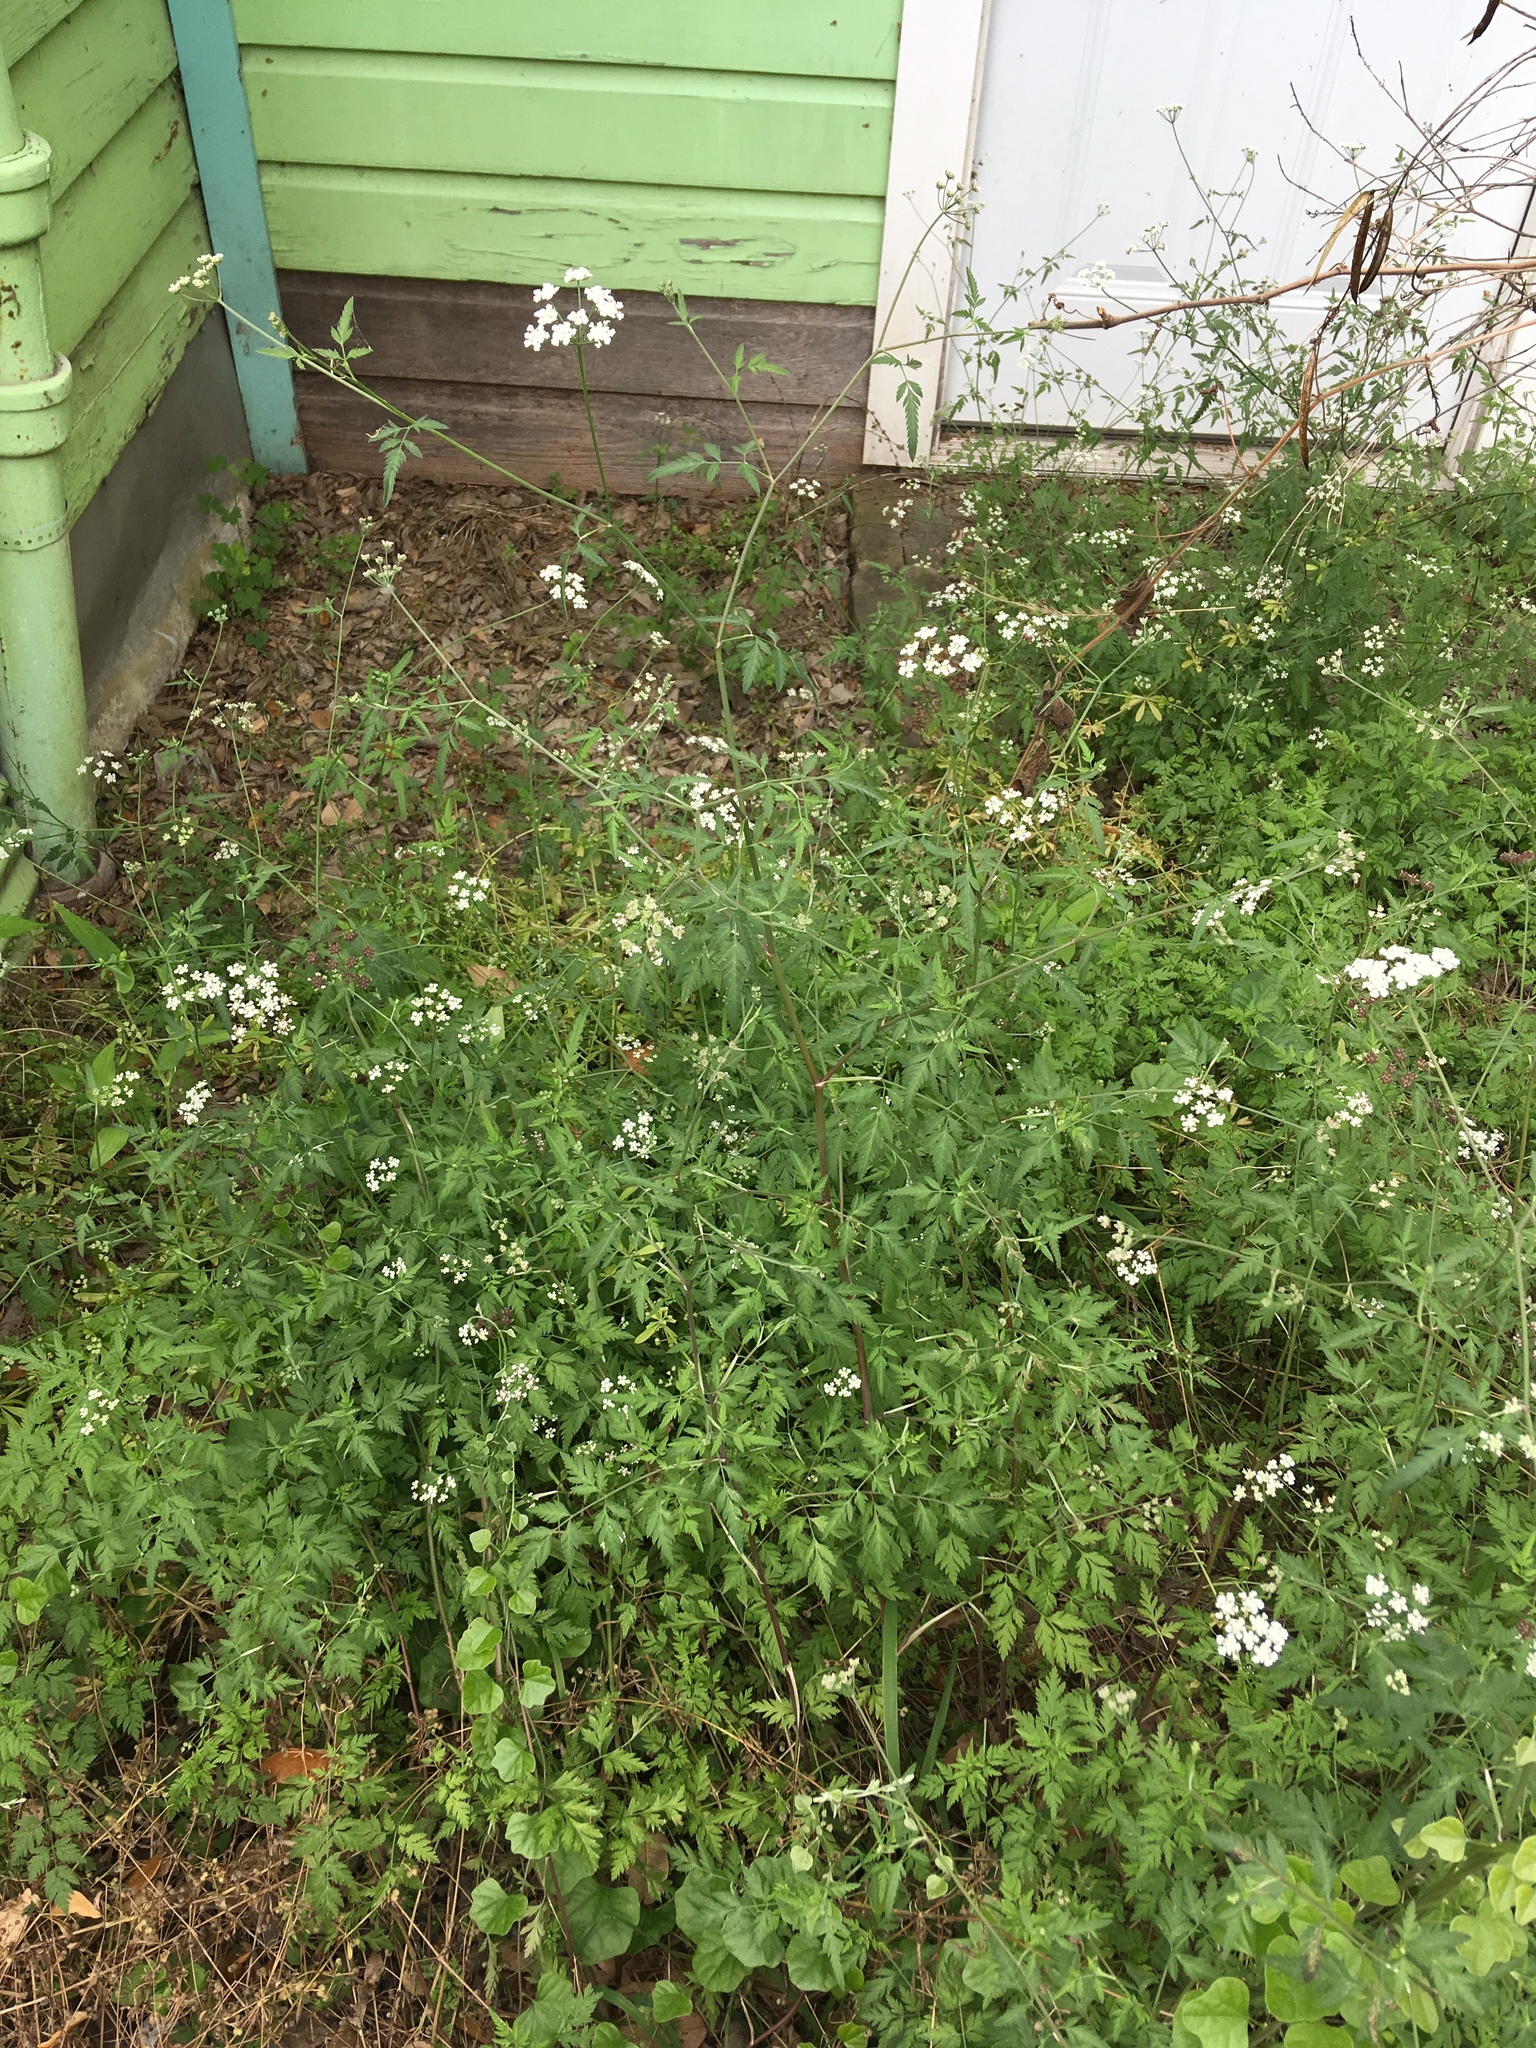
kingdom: Plantae
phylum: Tracheophyta
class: Magnoliopsida
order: Apiales
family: Apiaceae
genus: Torilis
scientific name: Torilis arvensis
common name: Spreading hedge-parsley
